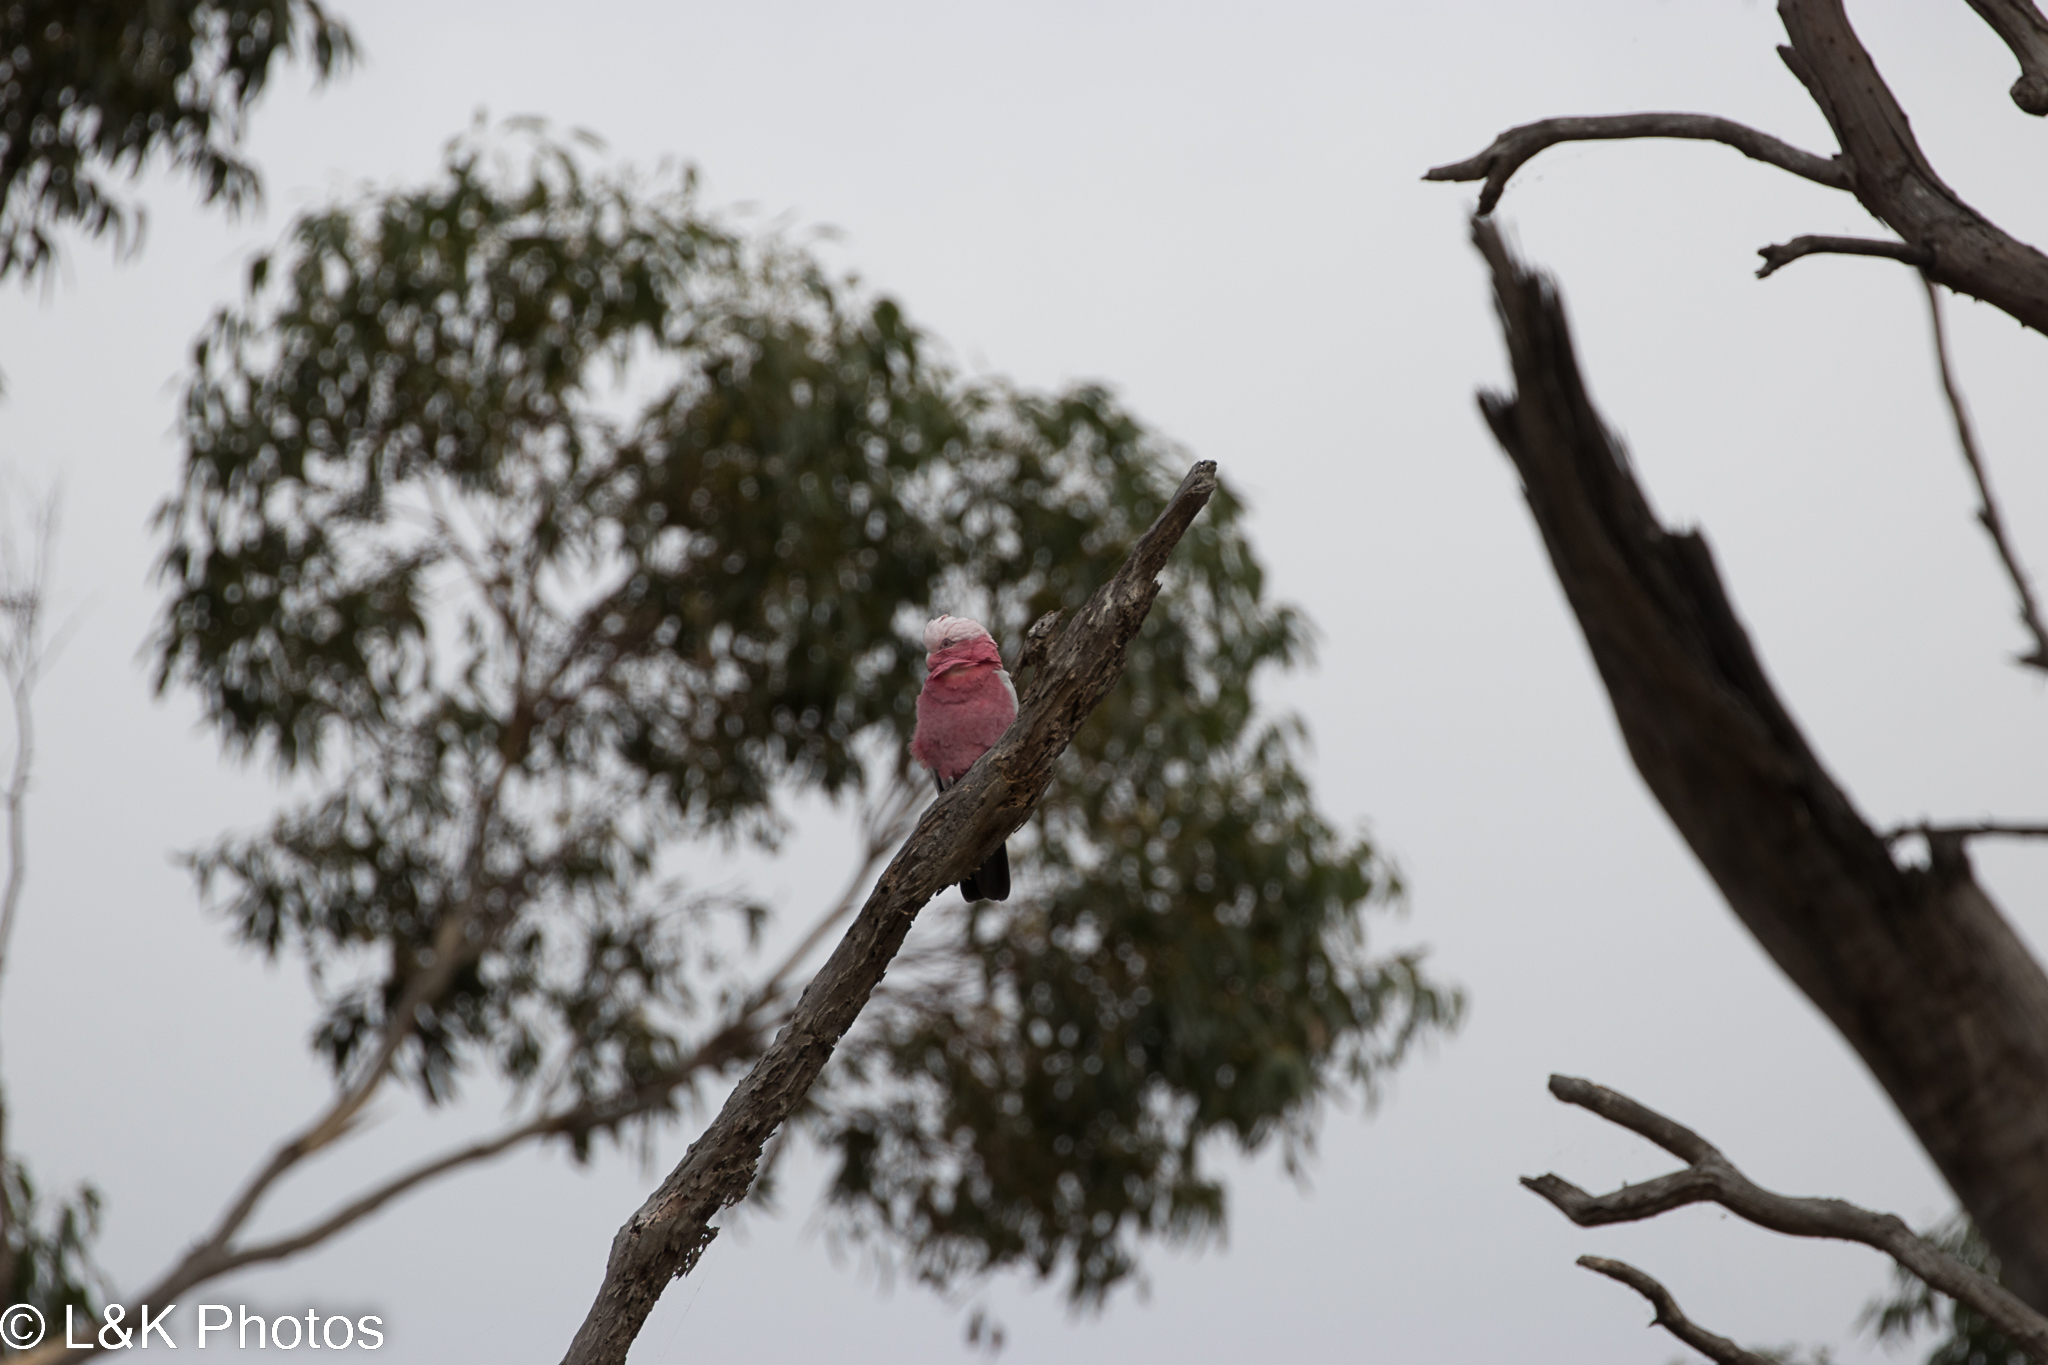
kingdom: Animalia
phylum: Chordata
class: Aves
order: Psittaciformes
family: Psittacidae
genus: Eolophus
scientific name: Eolophus roseicapilla
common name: Galah
